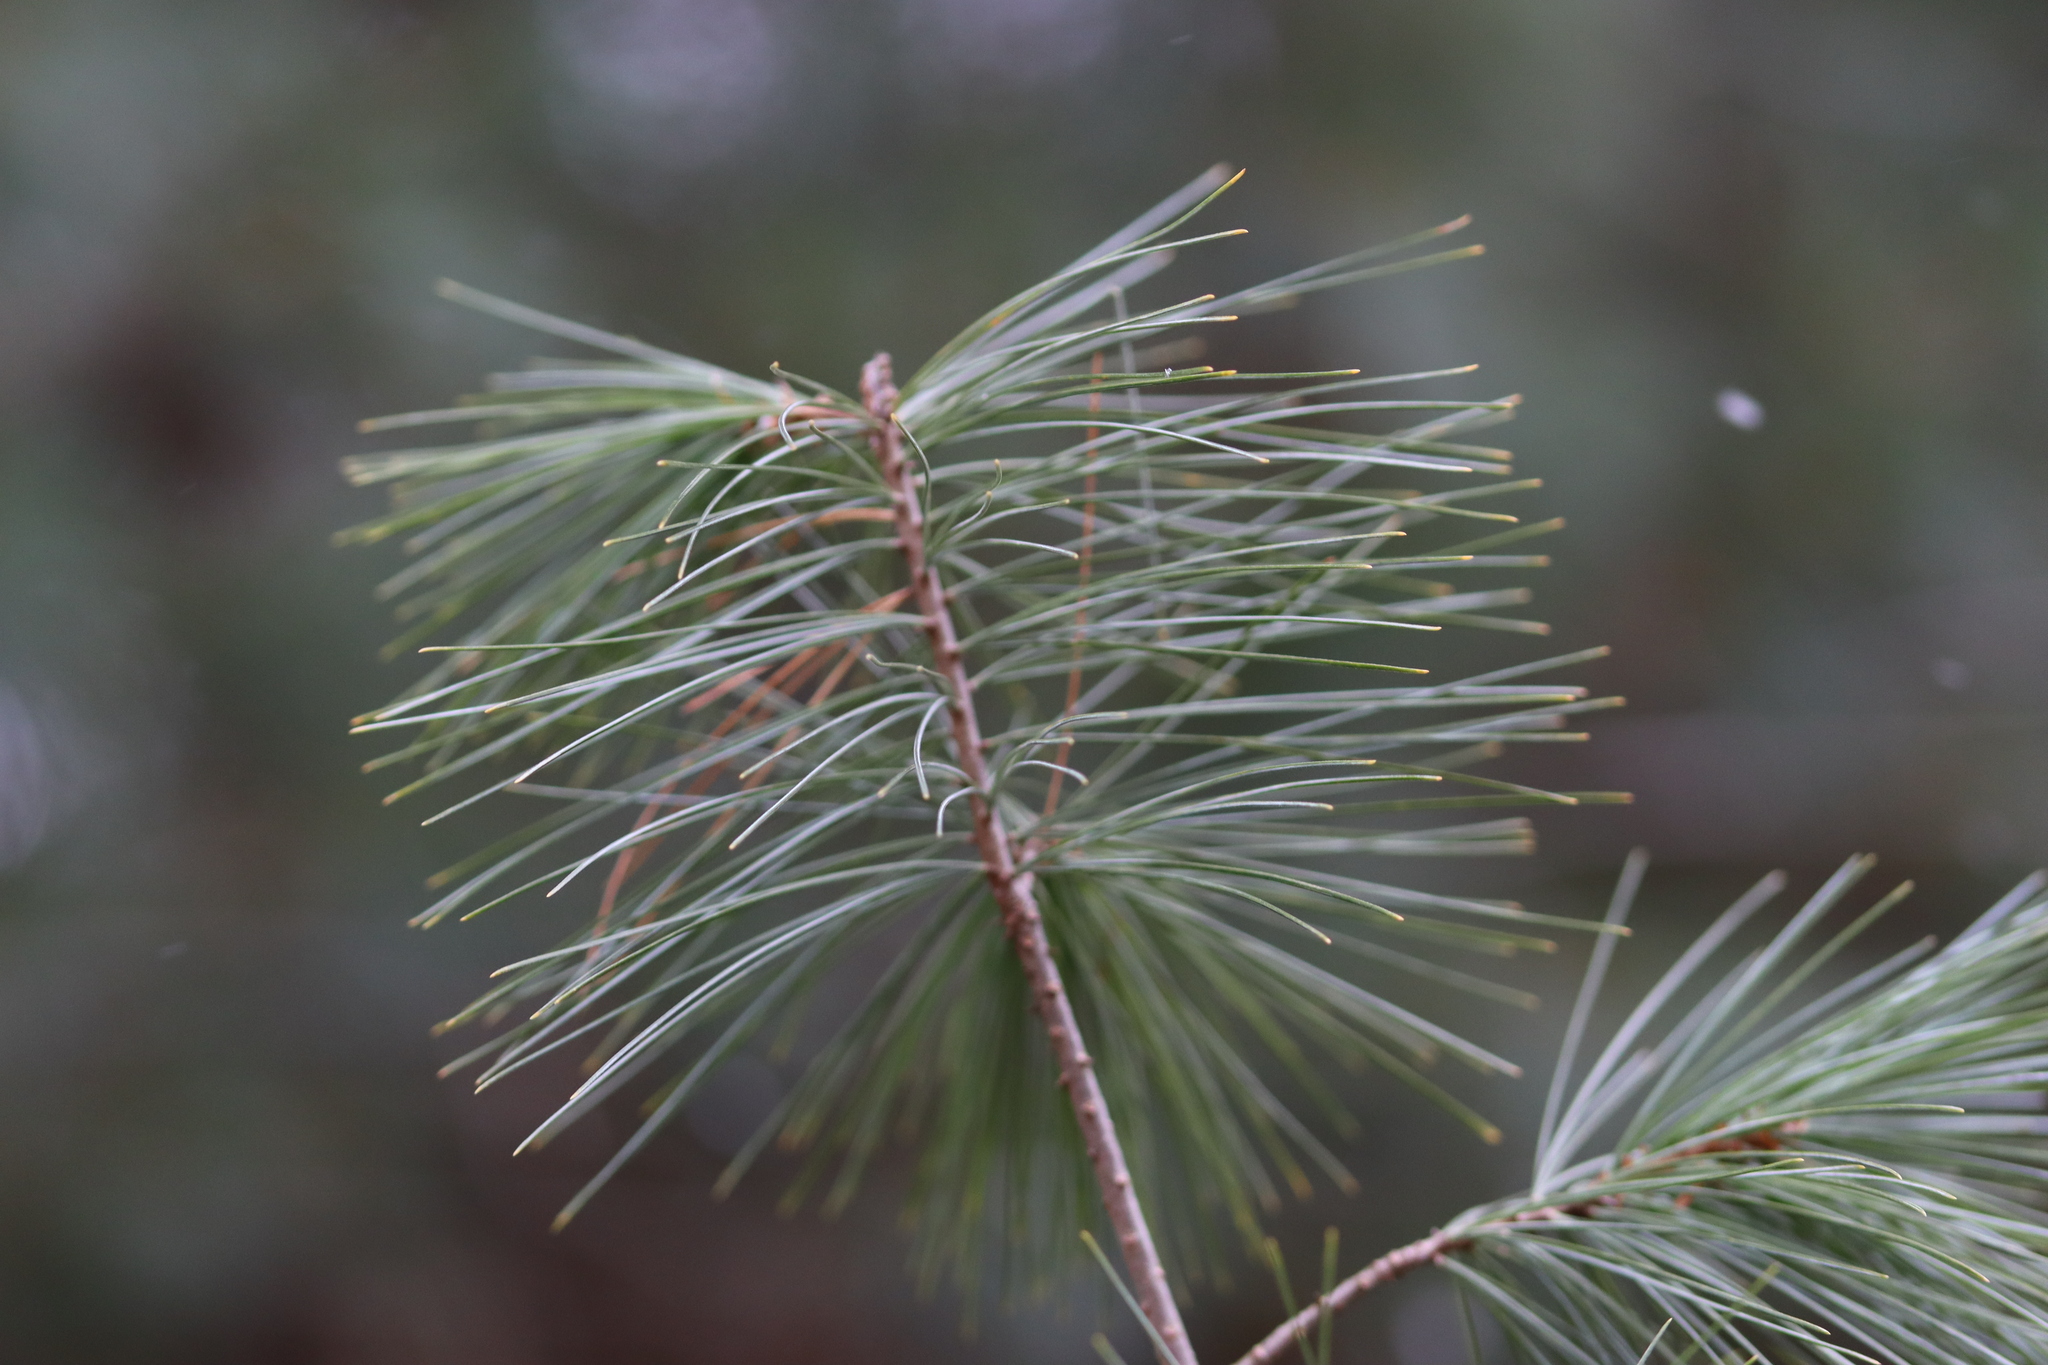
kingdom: Plantae
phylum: Tracheophyta
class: Pinopsida
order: Pinales
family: Pinaceae
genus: Pinus
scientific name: Pinus strobus
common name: Weymouth pine
